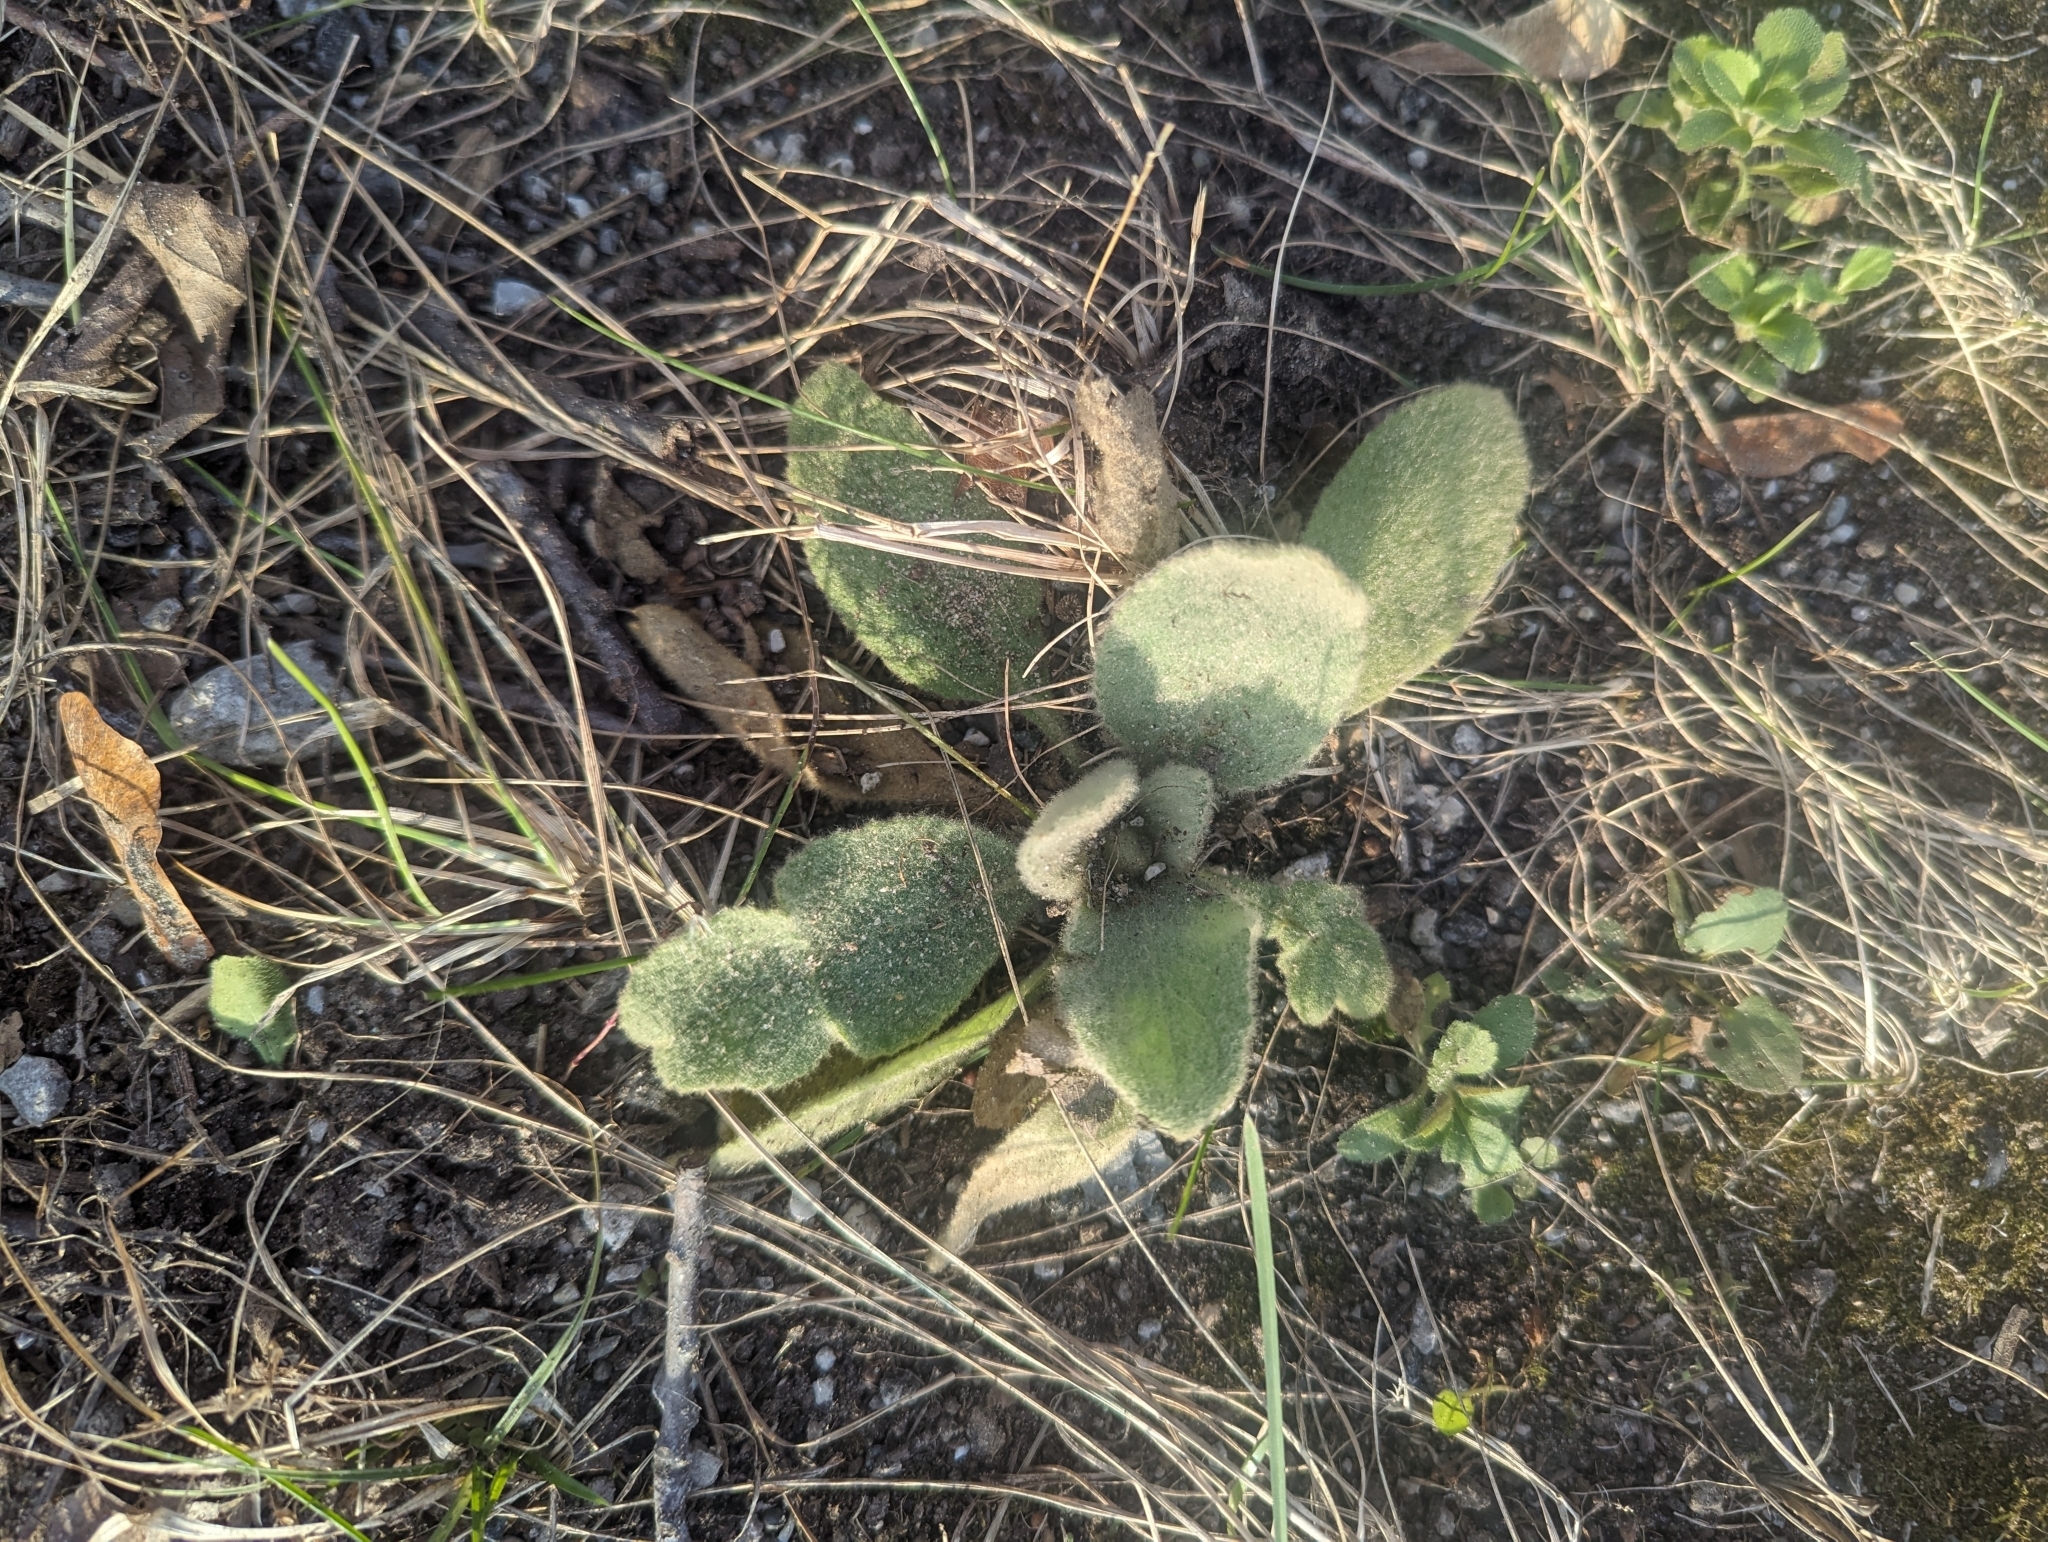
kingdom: Plantae
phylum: Tracheophyta
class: Magnoliopsida
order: Lamiales
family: Scrophulariaceae
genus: Verbascum
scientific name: Verbascum thapsus
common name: Common mullein
